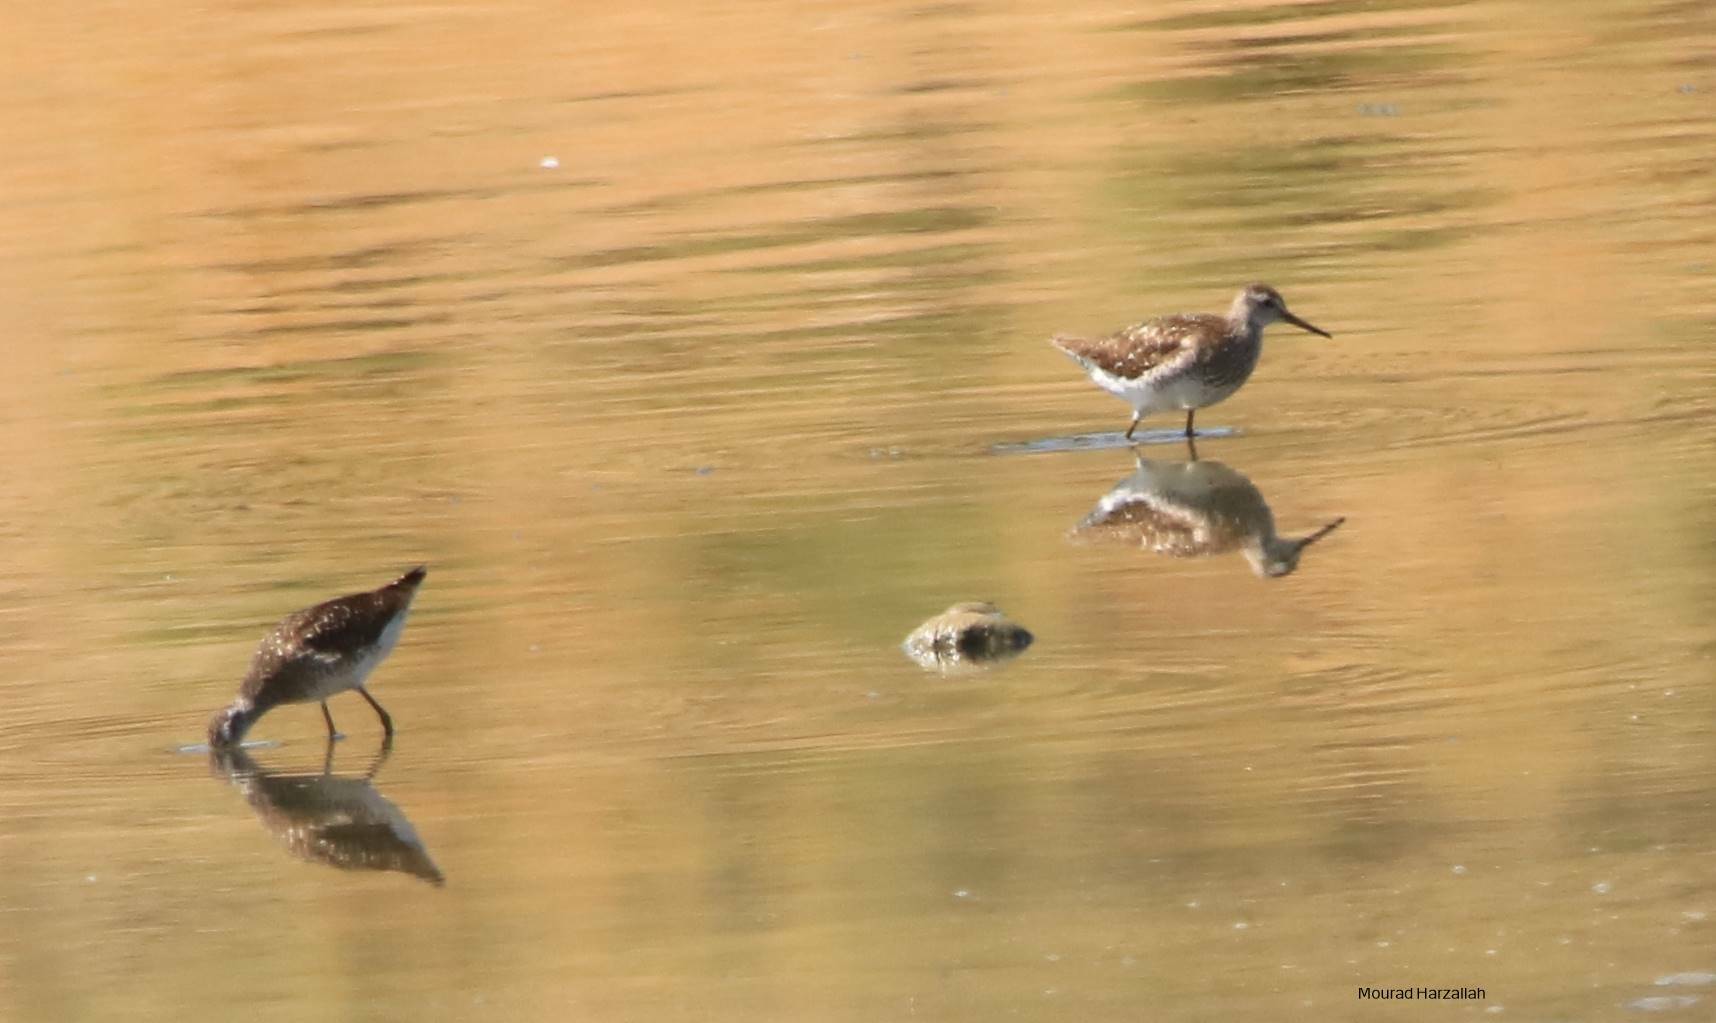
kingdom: Animalia
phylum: Chordata
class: Aves
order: Charadriiformes
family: Scolopacidae
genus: Tringa
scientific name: Tringa glareola
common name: Wood sandpiper
